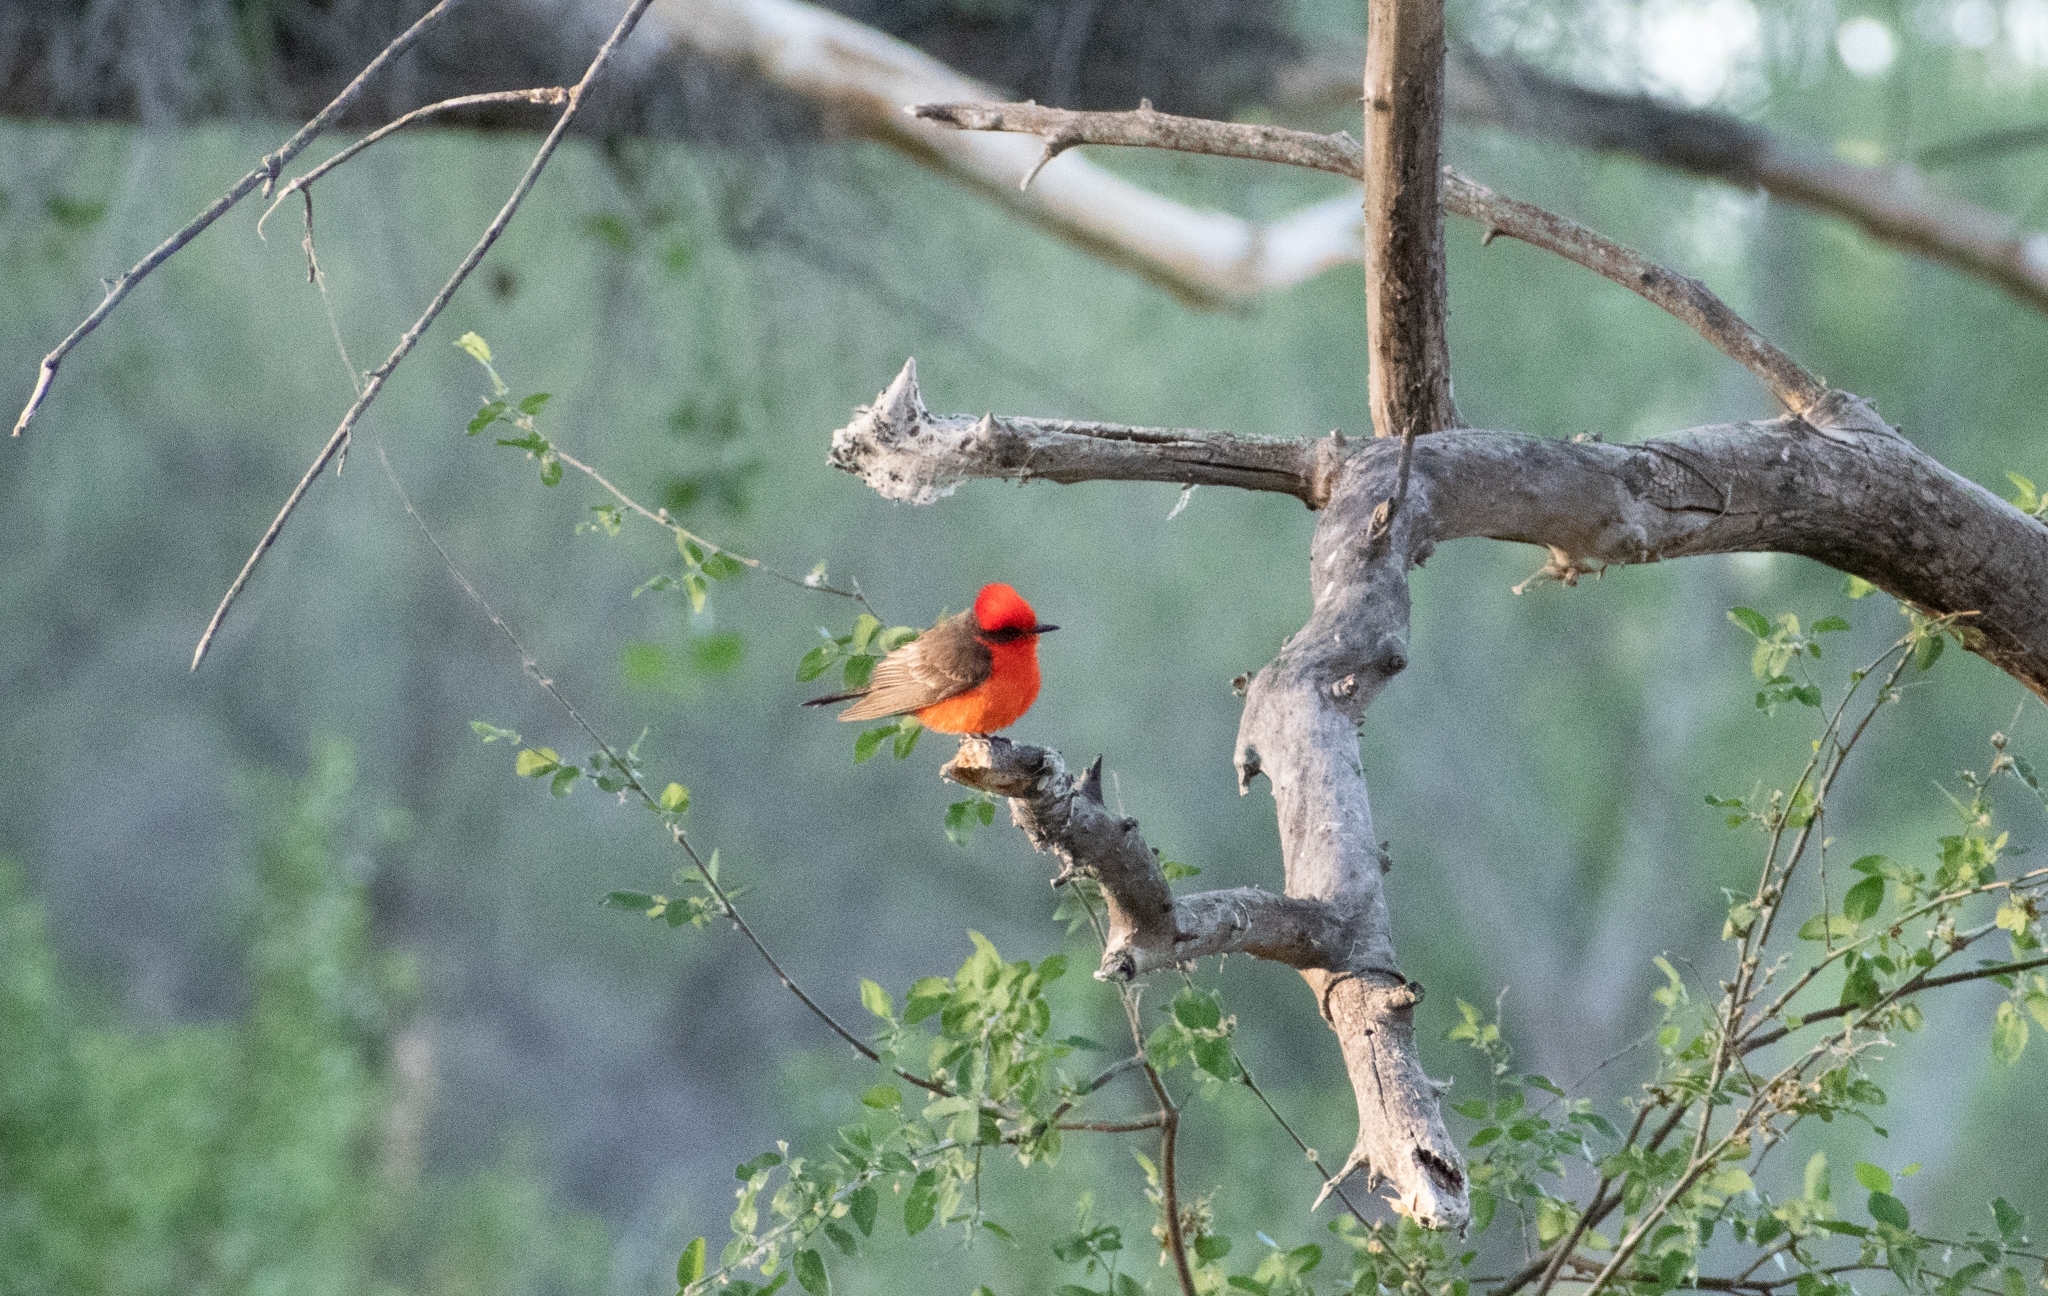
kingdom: Animalia
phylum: Chordata
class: Aves
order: Passeriformes
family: Tyrannidae
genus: Pyrocephalus
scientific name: Pyrocephalus rubinus
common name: Vermilion flycatcher
